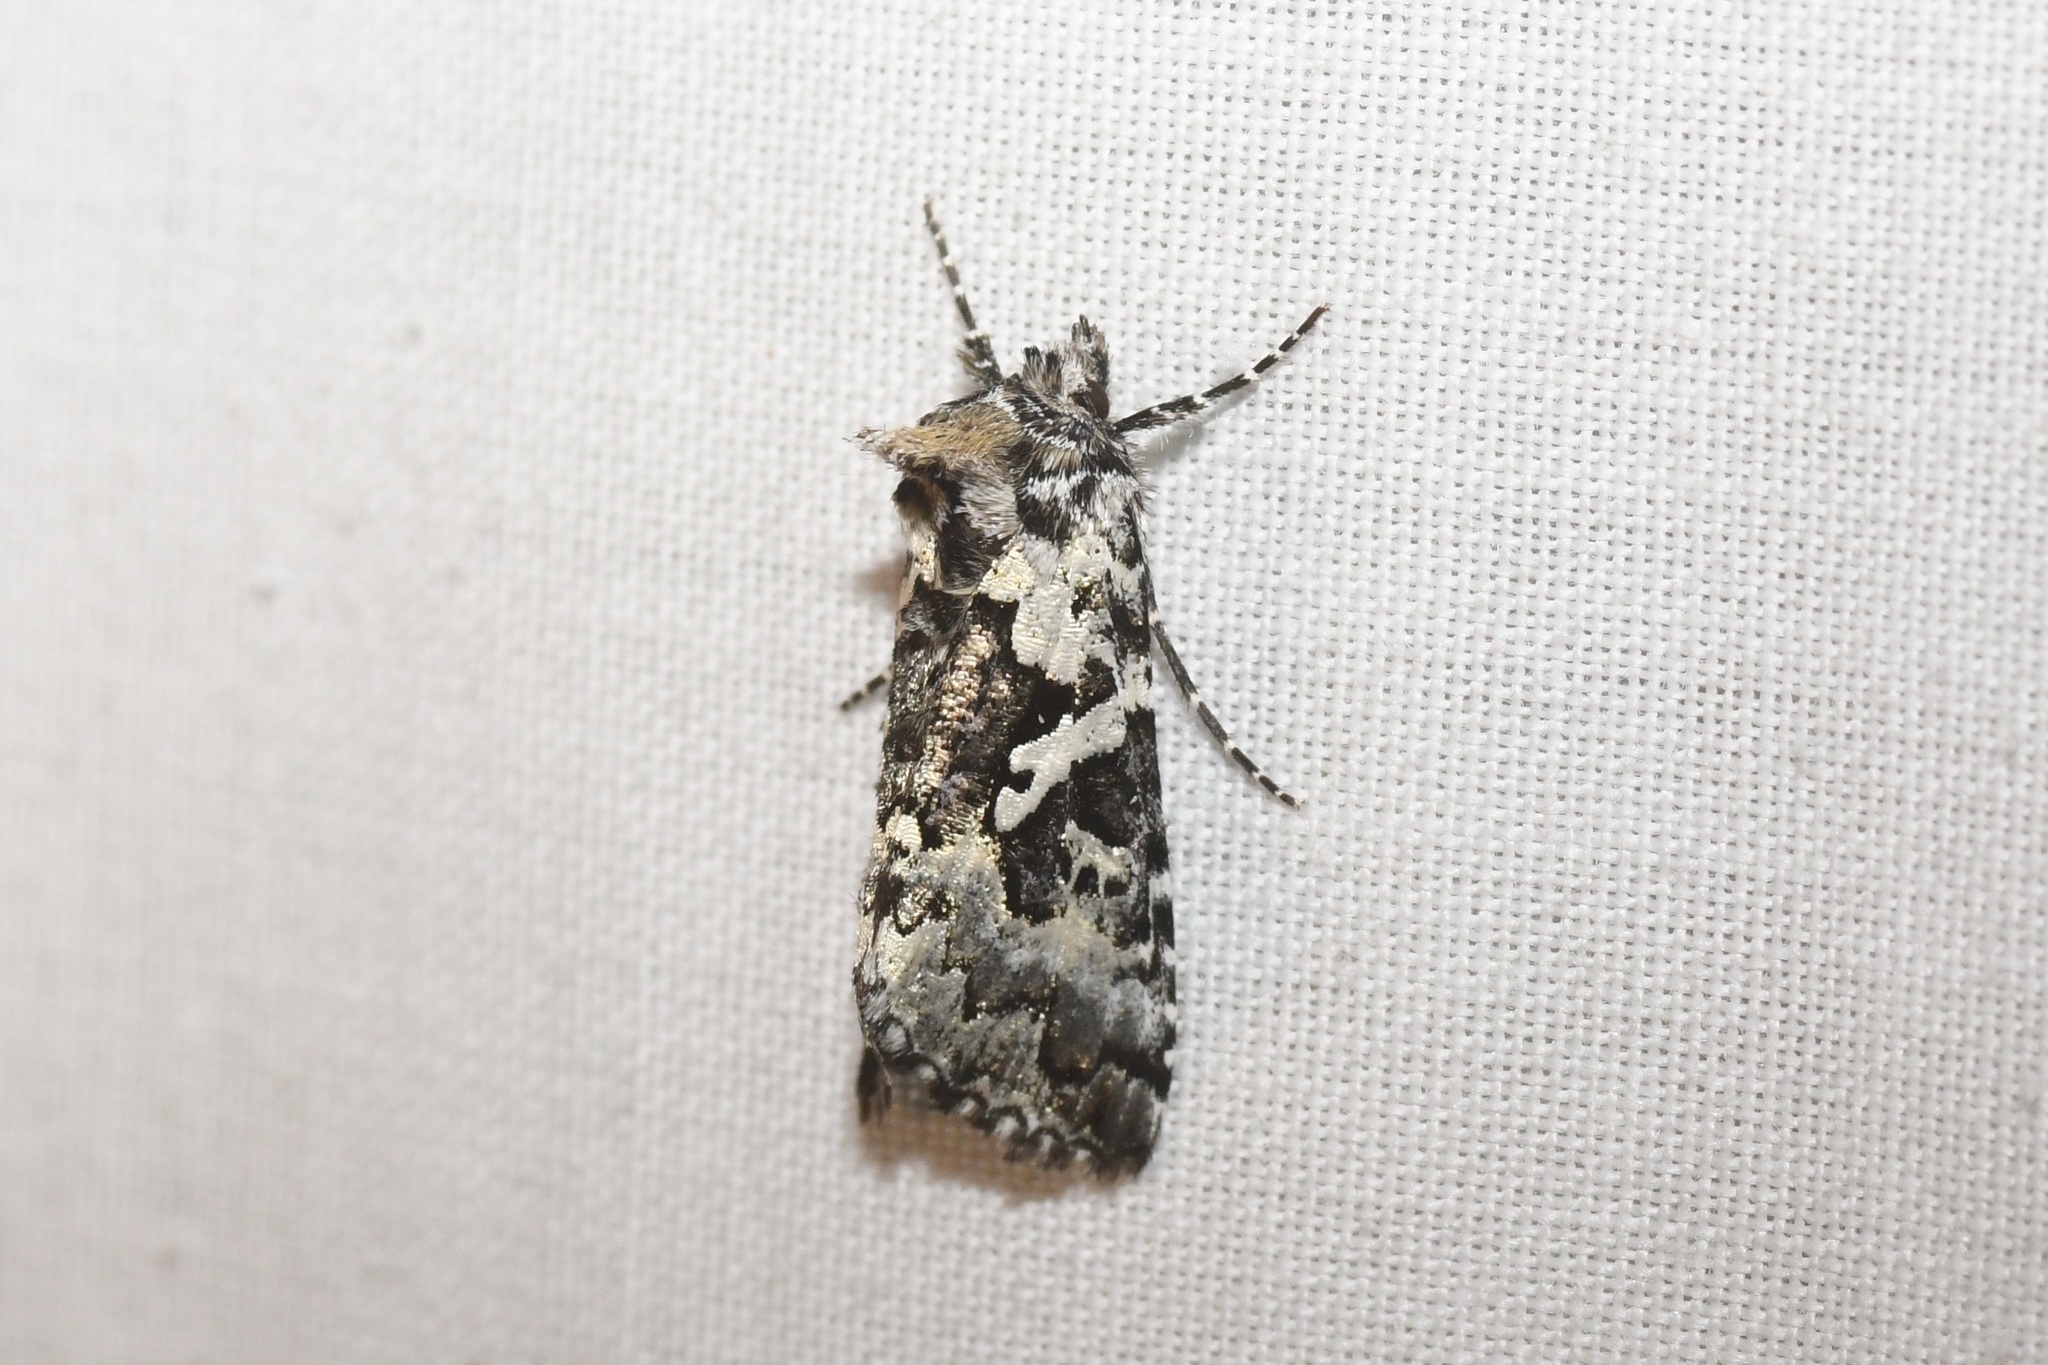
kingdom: Animalia
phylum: Arthropoda
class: Insecta
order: Lepidoptera
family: Noctuidae
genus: Syngrapha
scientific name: Syngrapha rectangula
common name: Angulated cutworm
